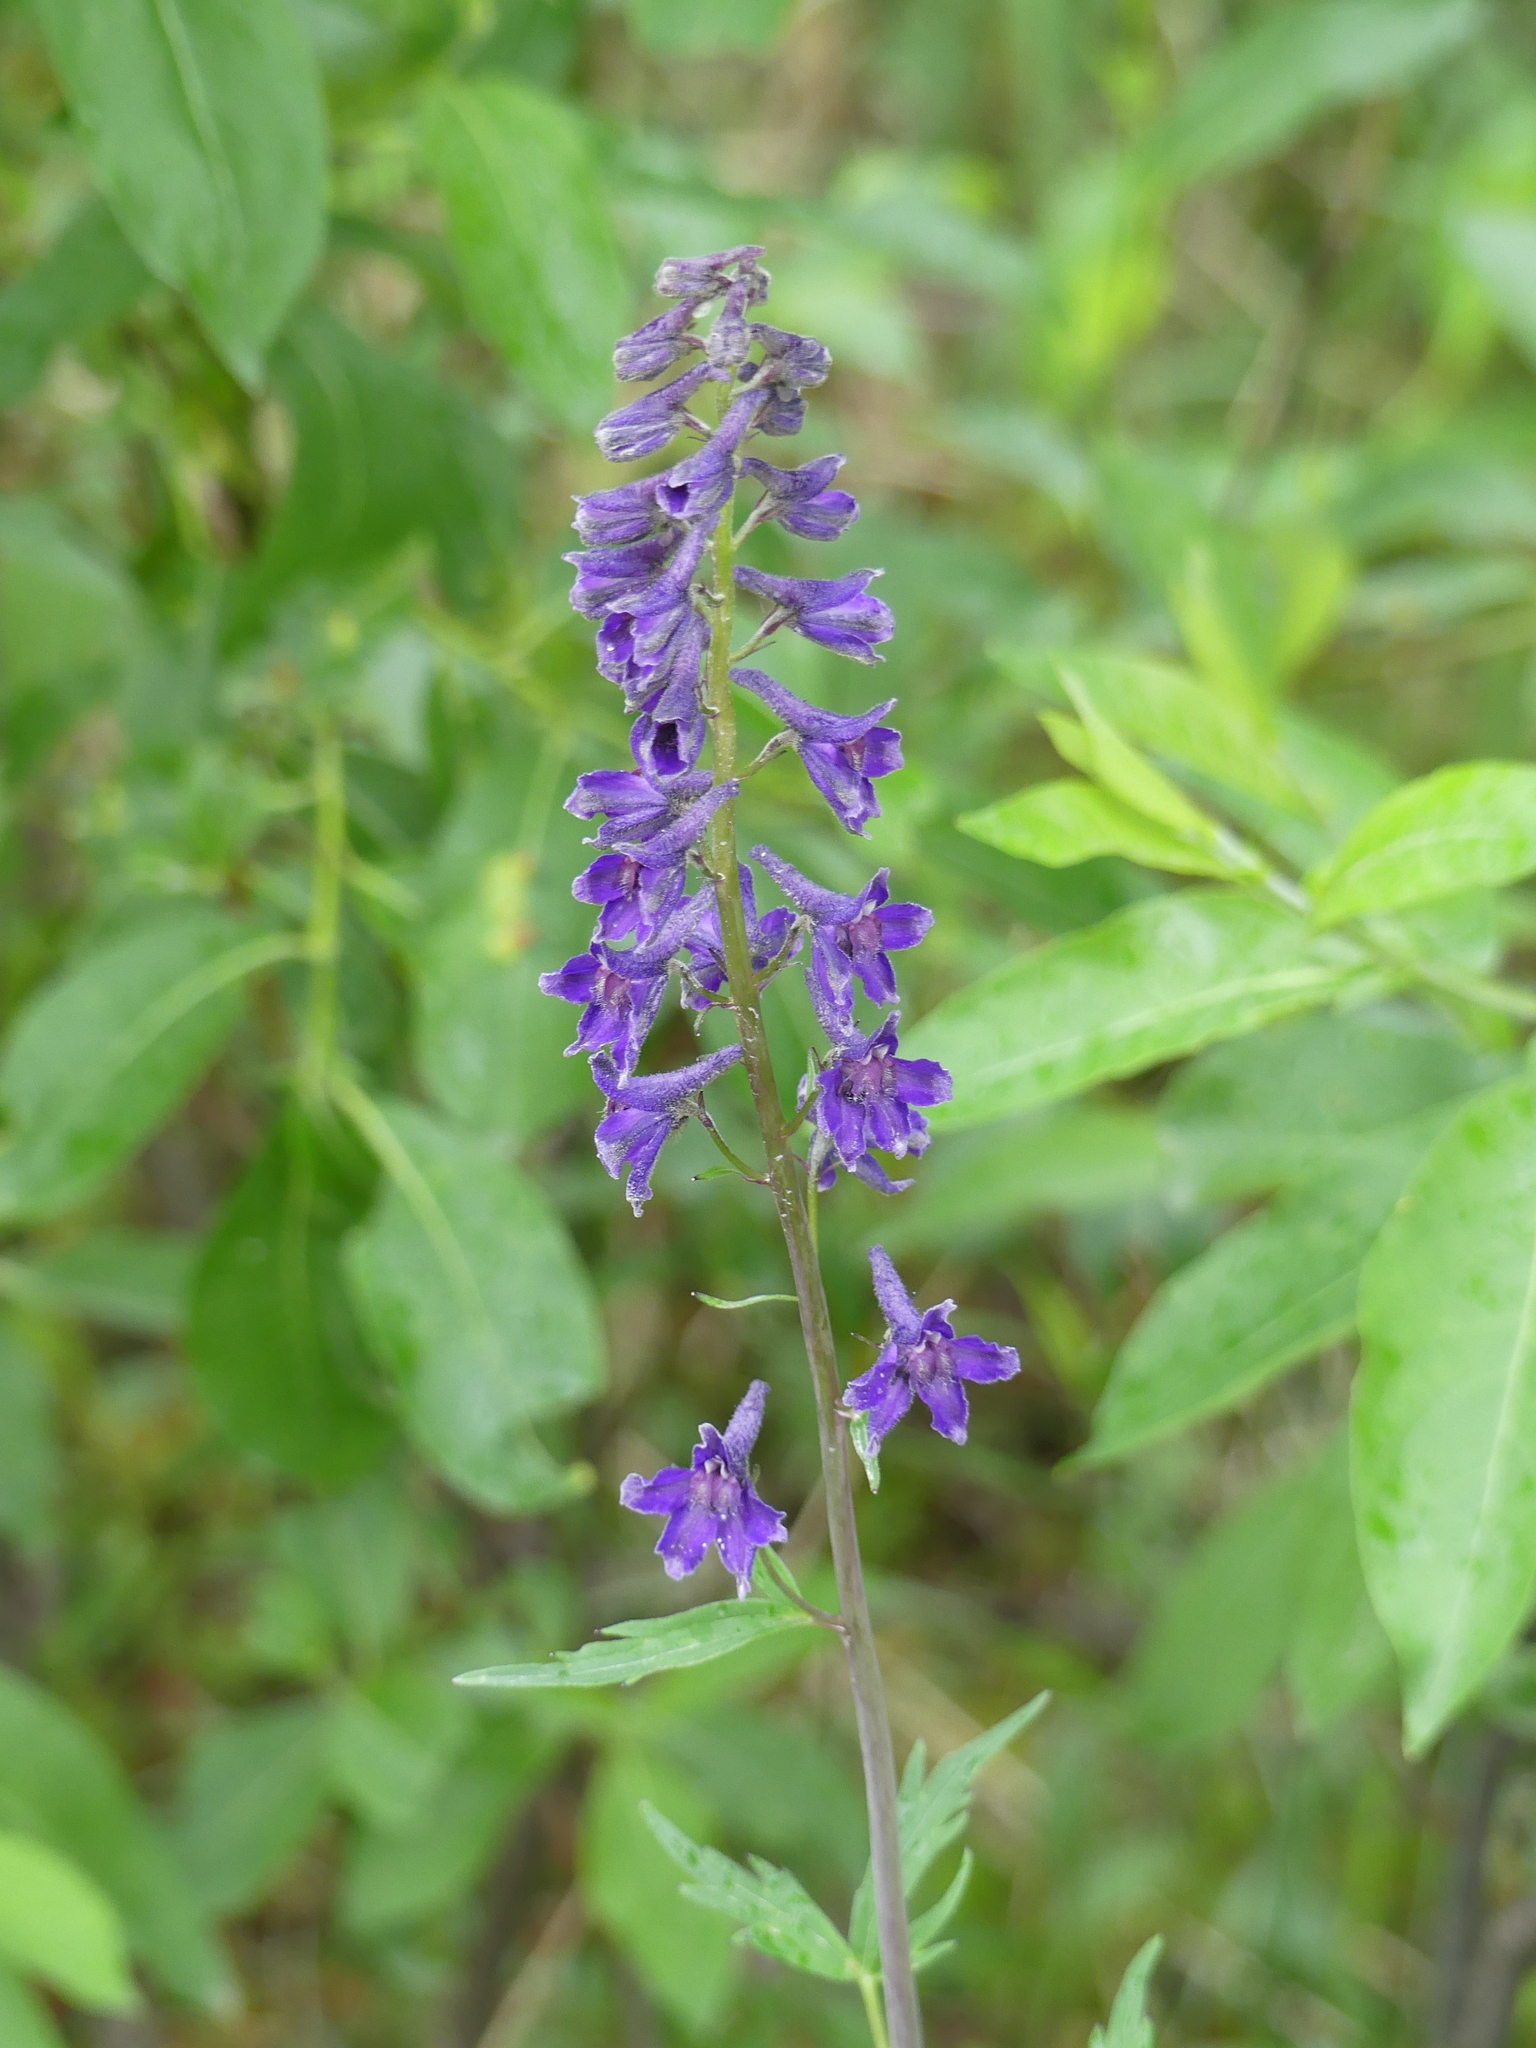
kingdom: Plantae
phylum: Tracheophyta
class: Magnoliopsida
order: Ranunculales
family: Ranunculaceae
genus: Delphinium
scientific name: Delphinium glaucum
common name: Brown's larkspur
